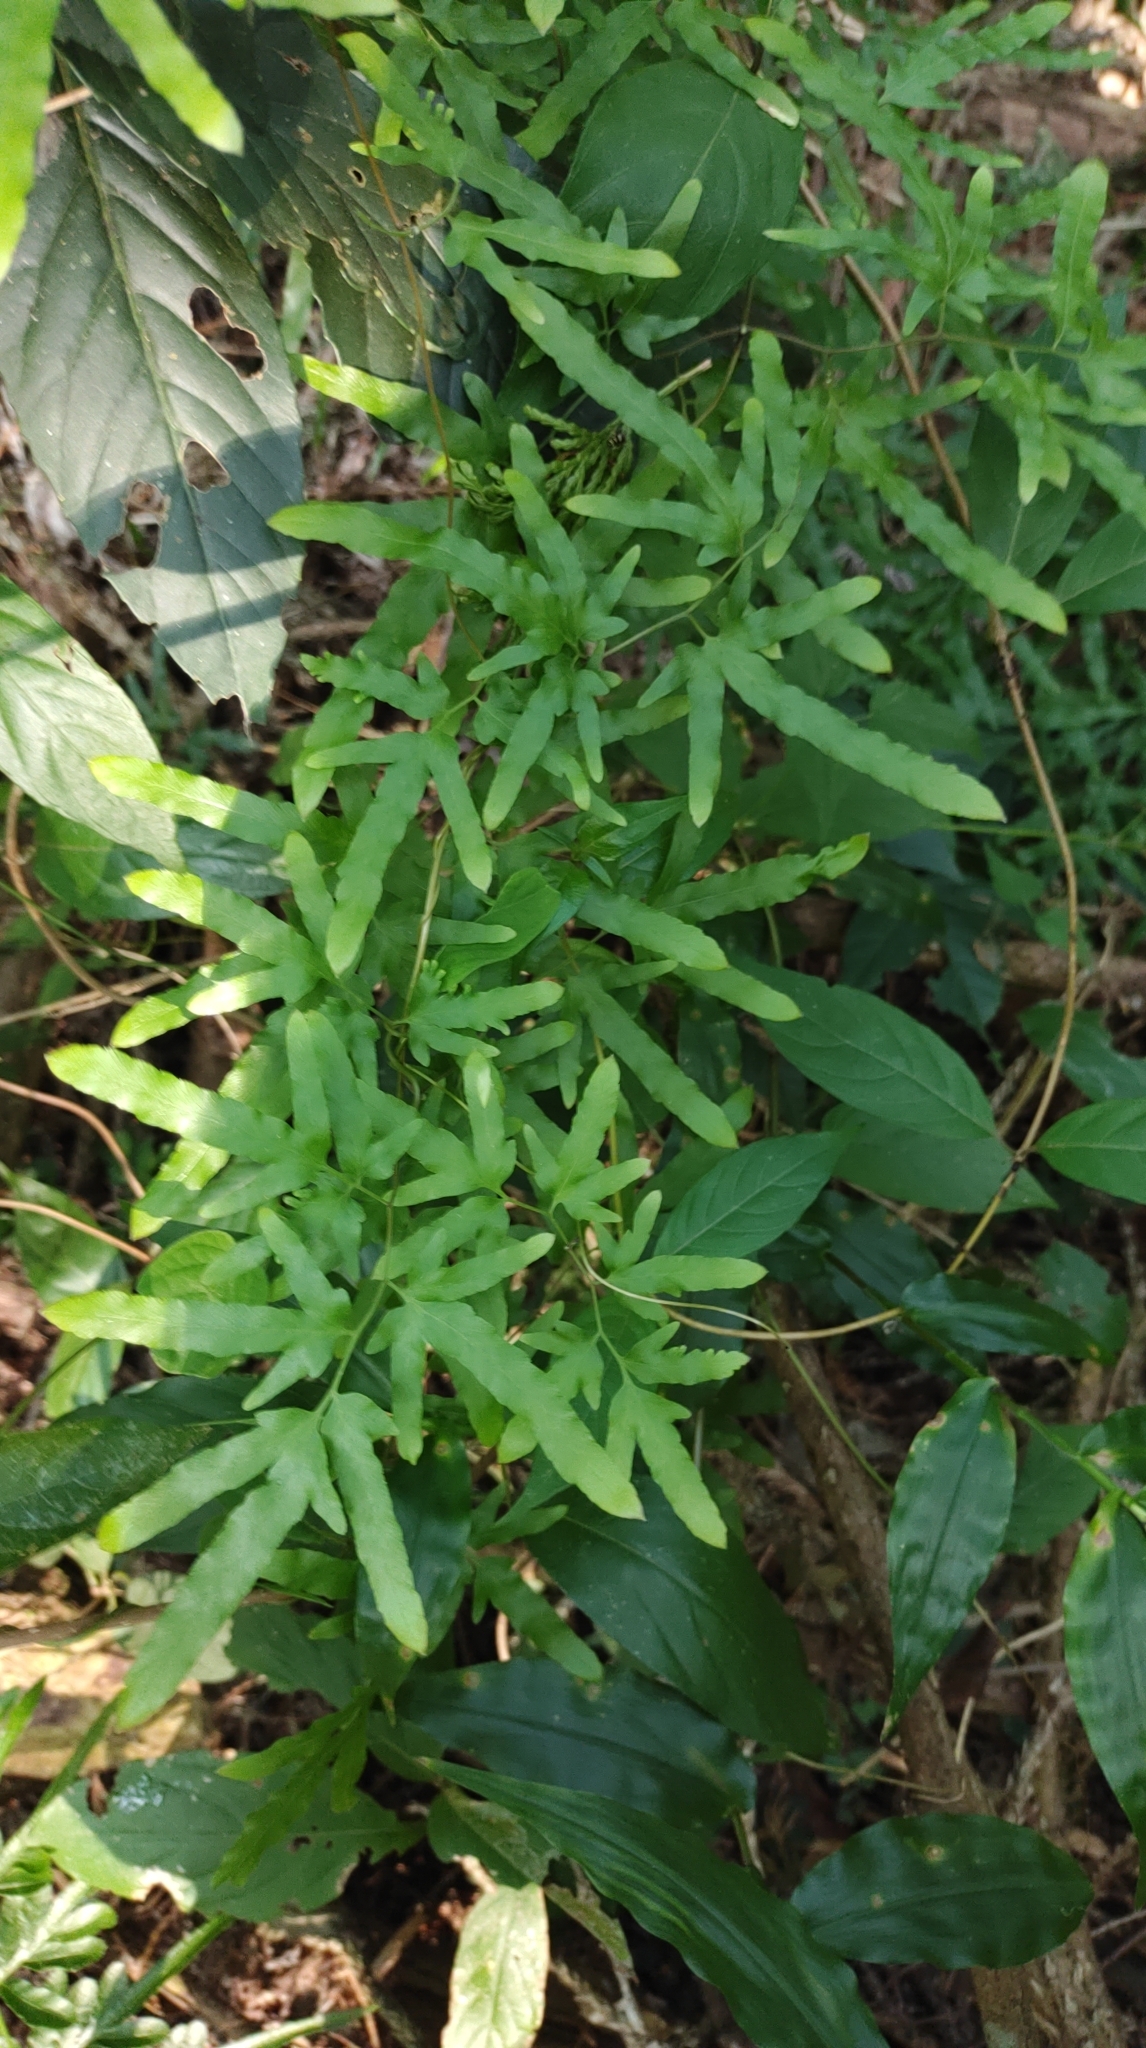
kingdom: Plantae
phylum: Tracheophyta
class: Polypodiopsida
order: Schizaeales
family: Lygodiaceae
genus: Lygodium
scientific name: Lygodium japonicum
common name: Japanese climbing fern
